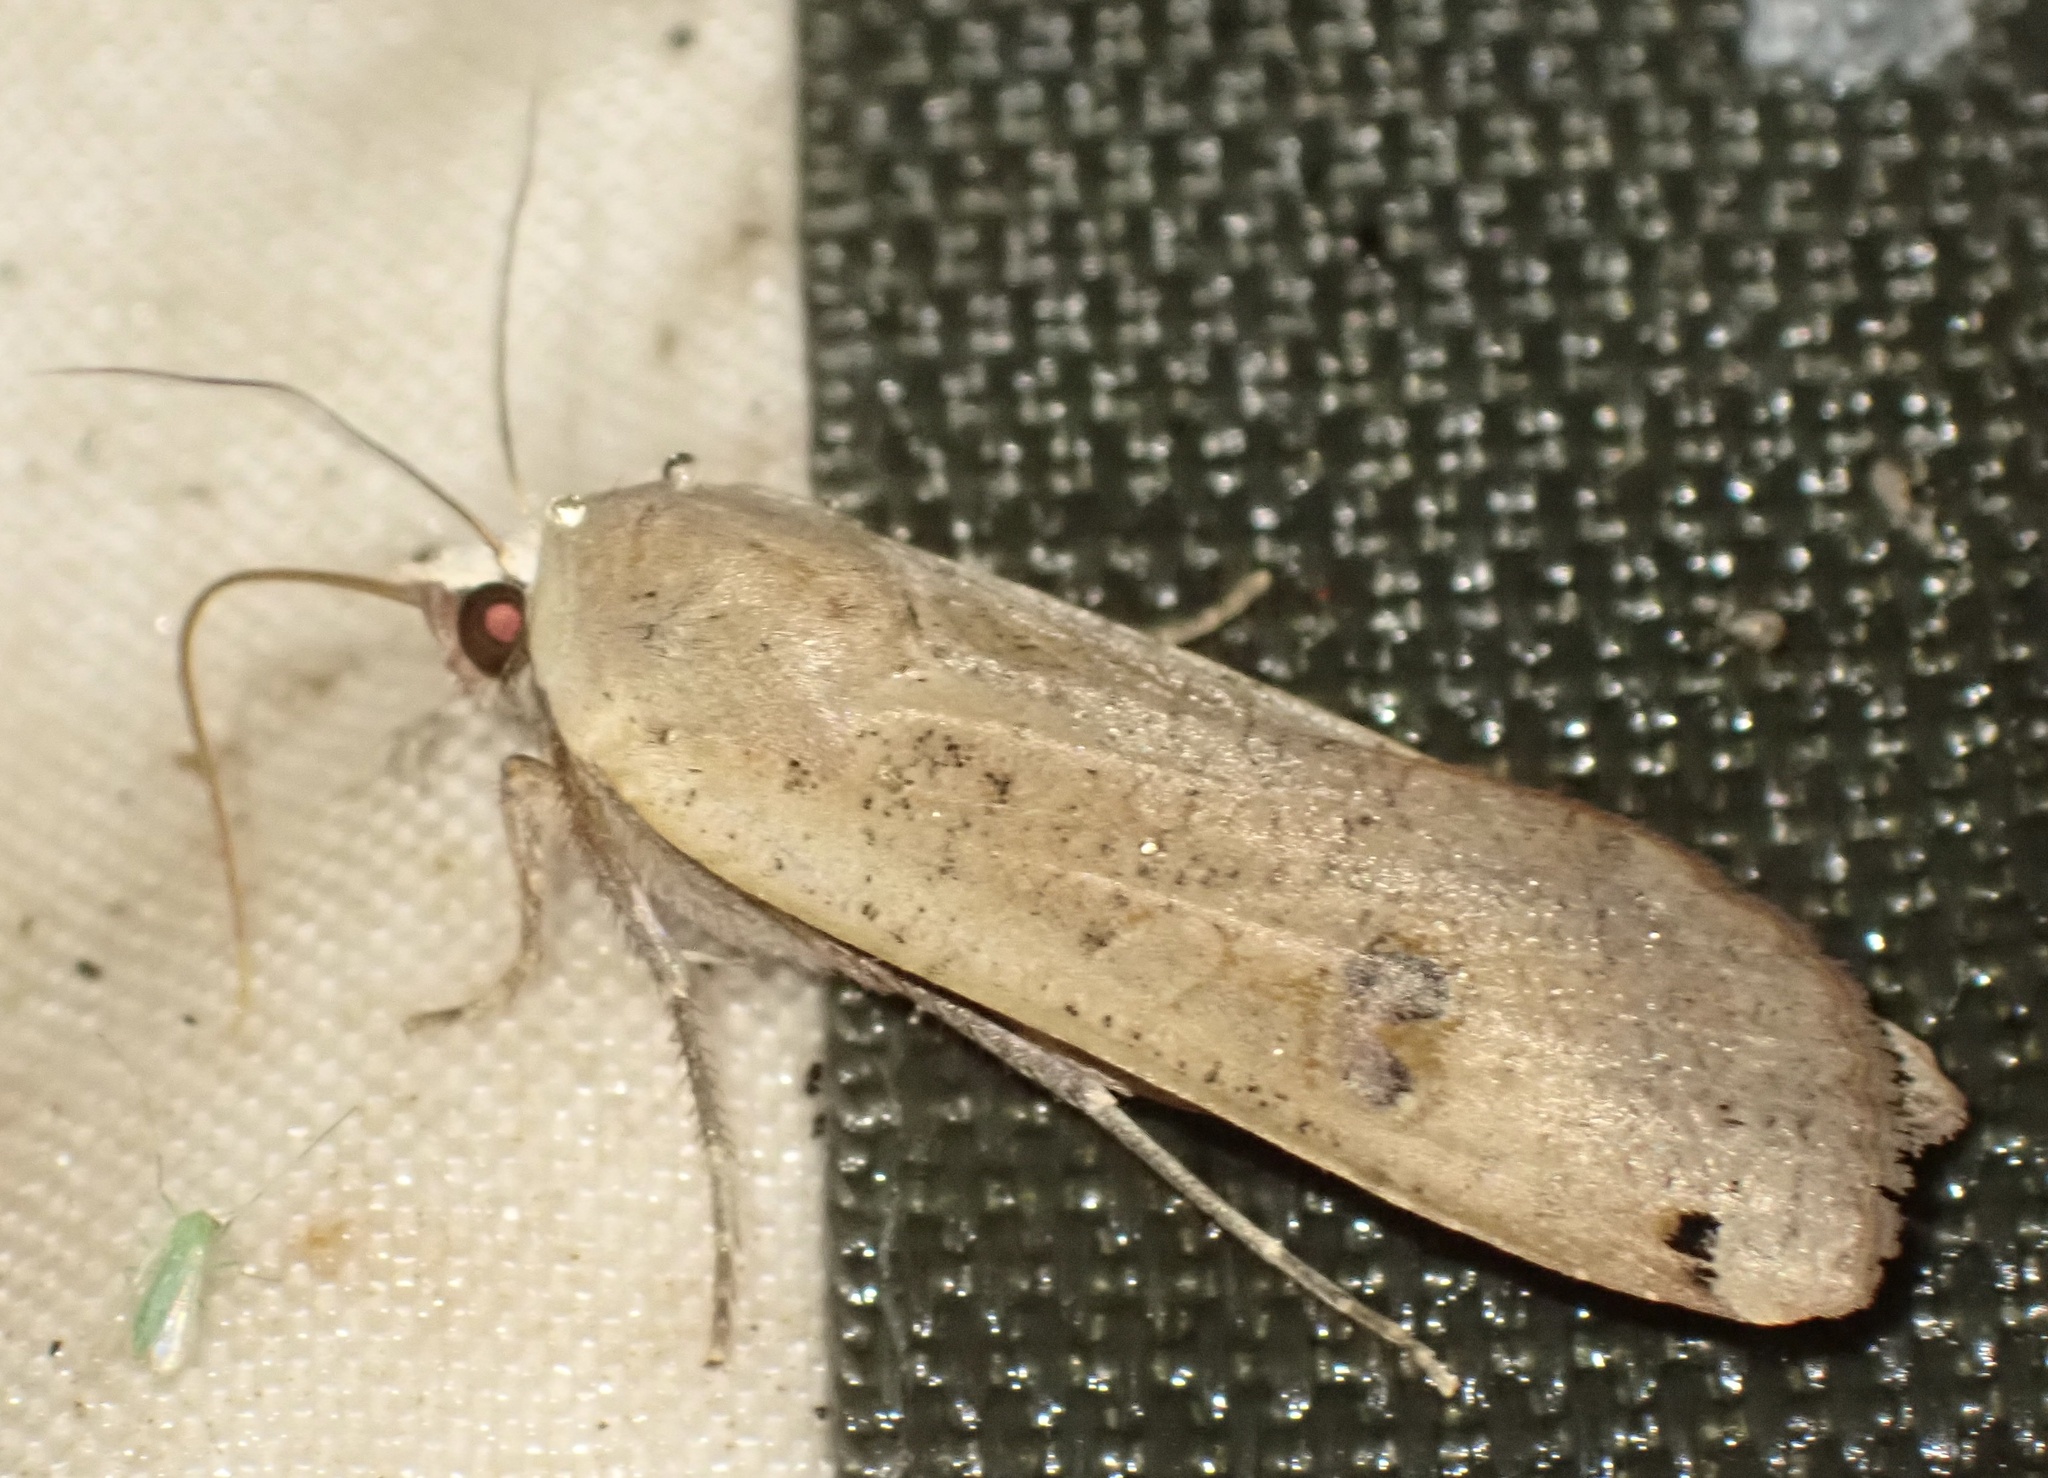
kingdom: Animalia
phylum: Arthropoda
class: Insecta
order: Lepidoptera
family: Noctuidae
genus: Noctua
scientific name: Noctua pronuba
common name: Large yellow underwing
